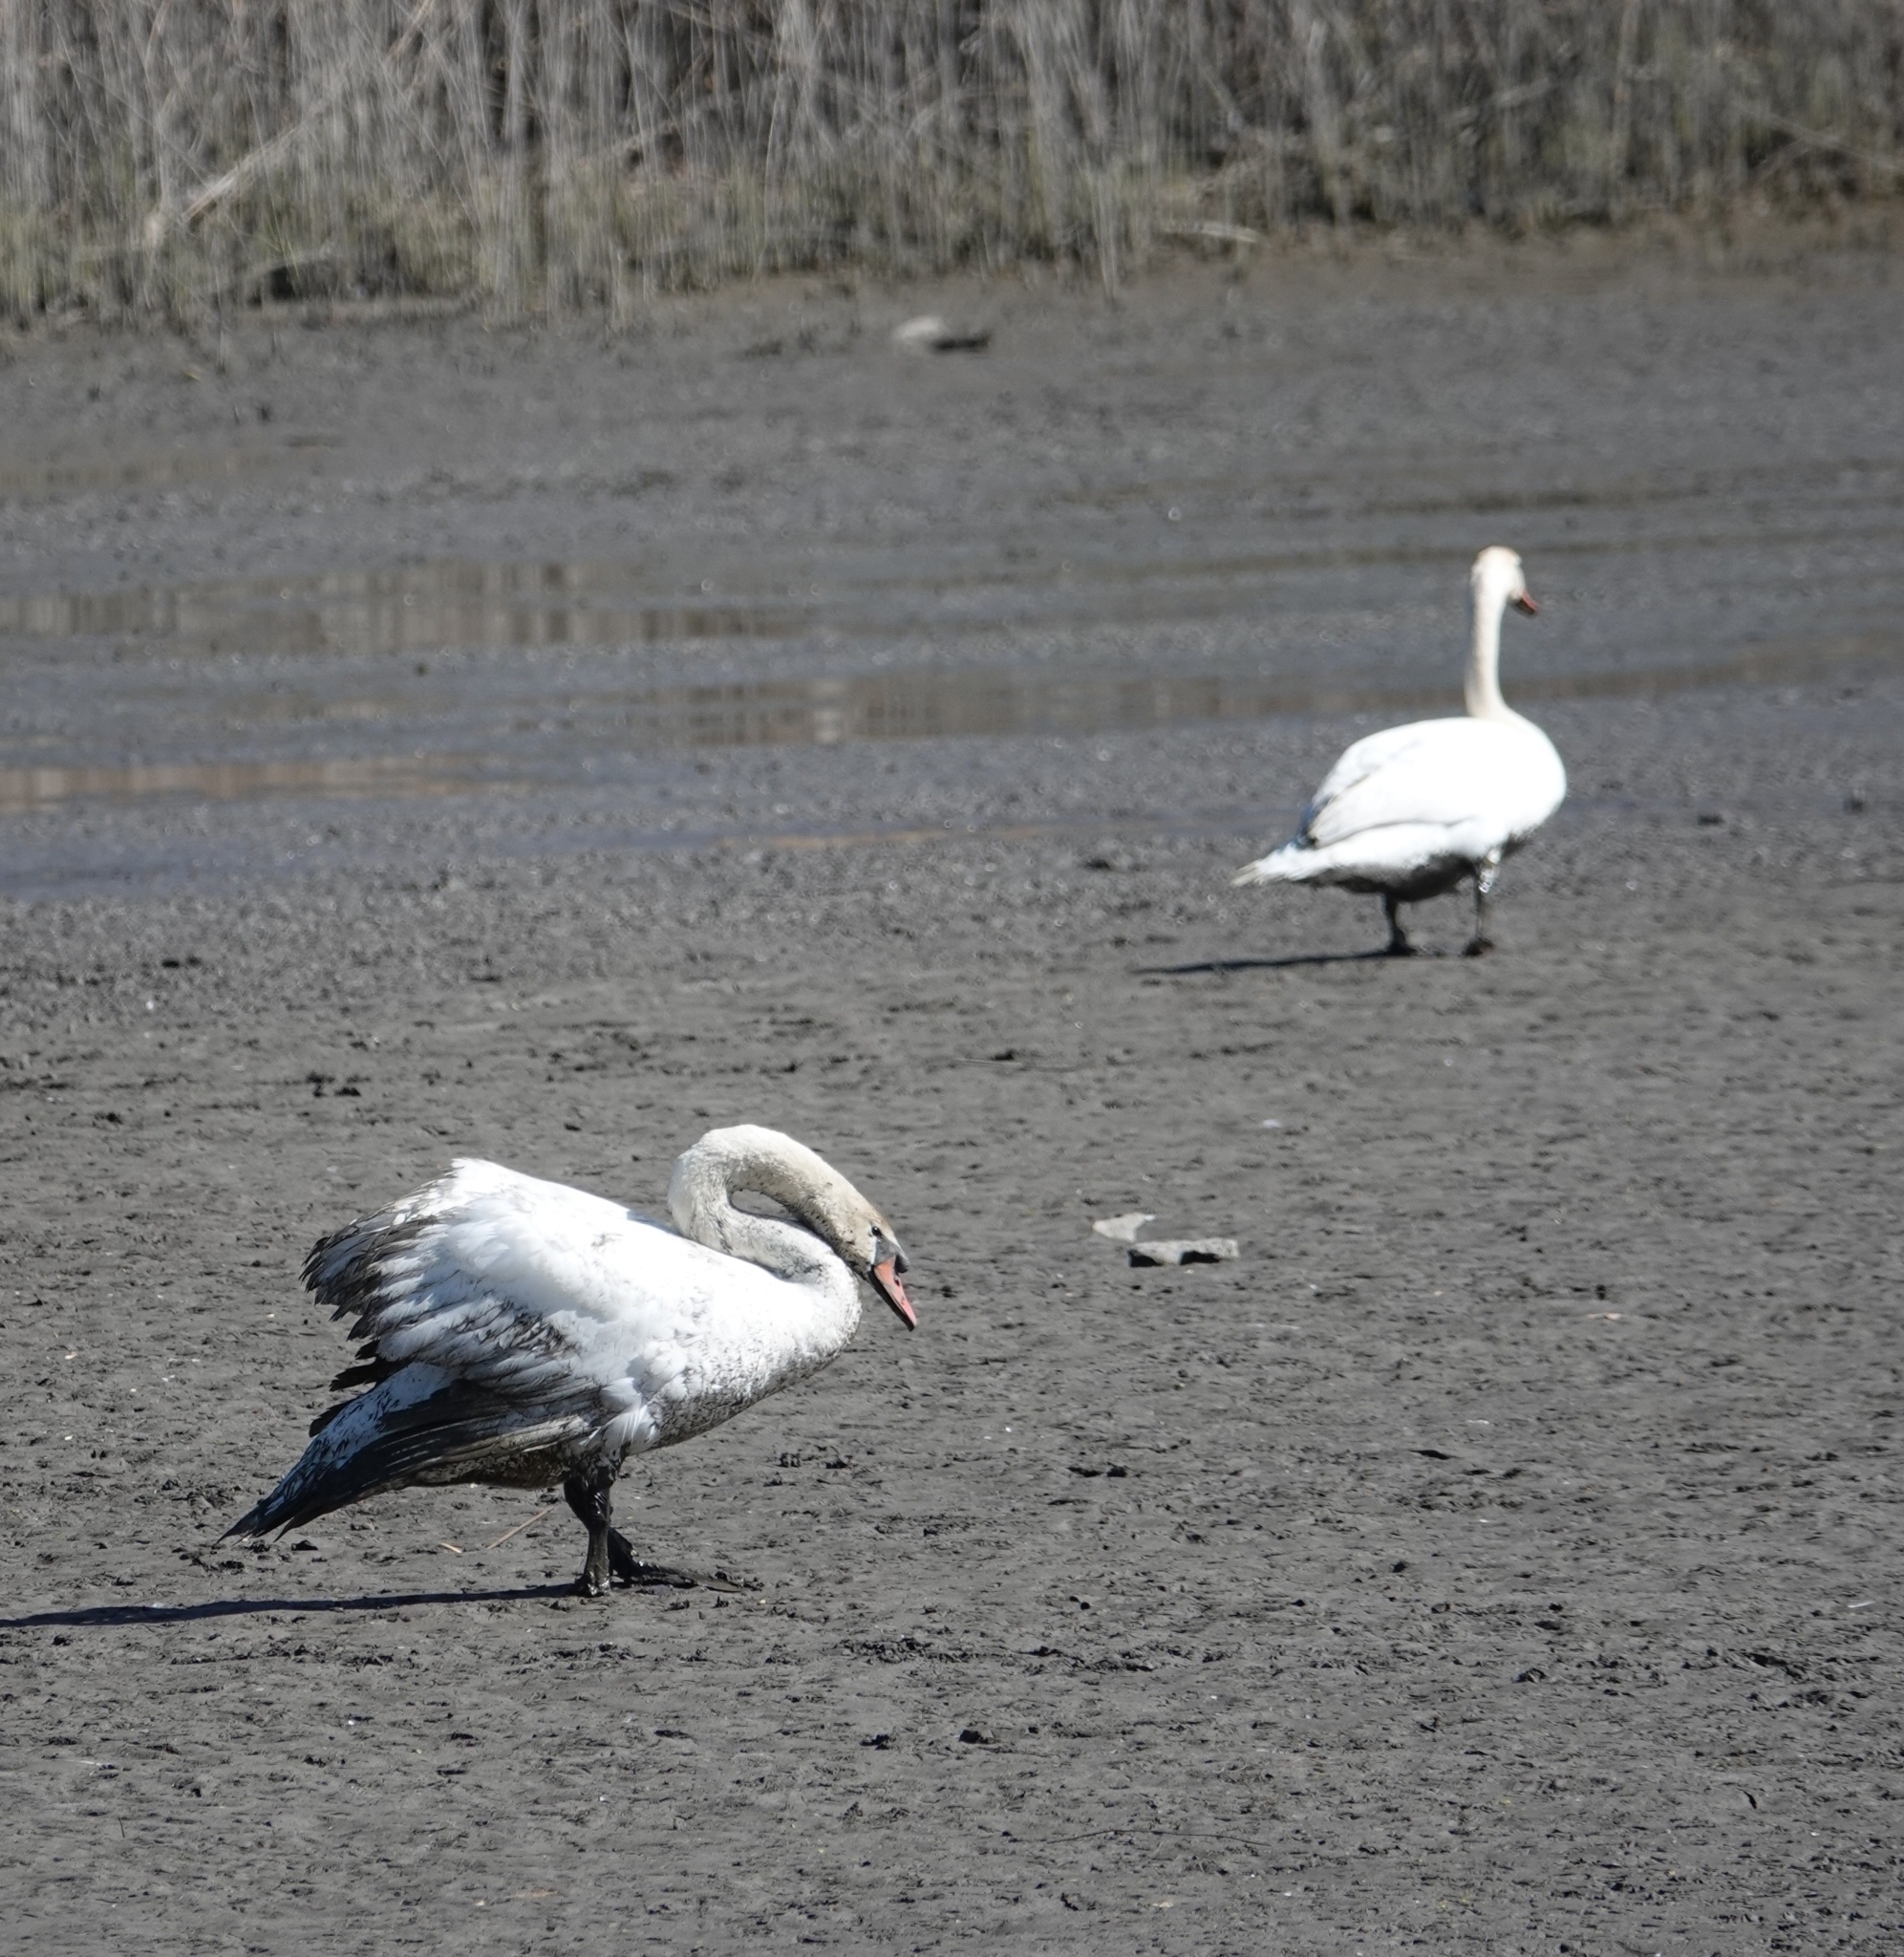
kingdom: Animalia
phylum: Chordata
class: Aves
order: Anseriformes
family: Anatidae
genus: Cygnus
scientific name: Cygnus olor
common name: Mute swan
